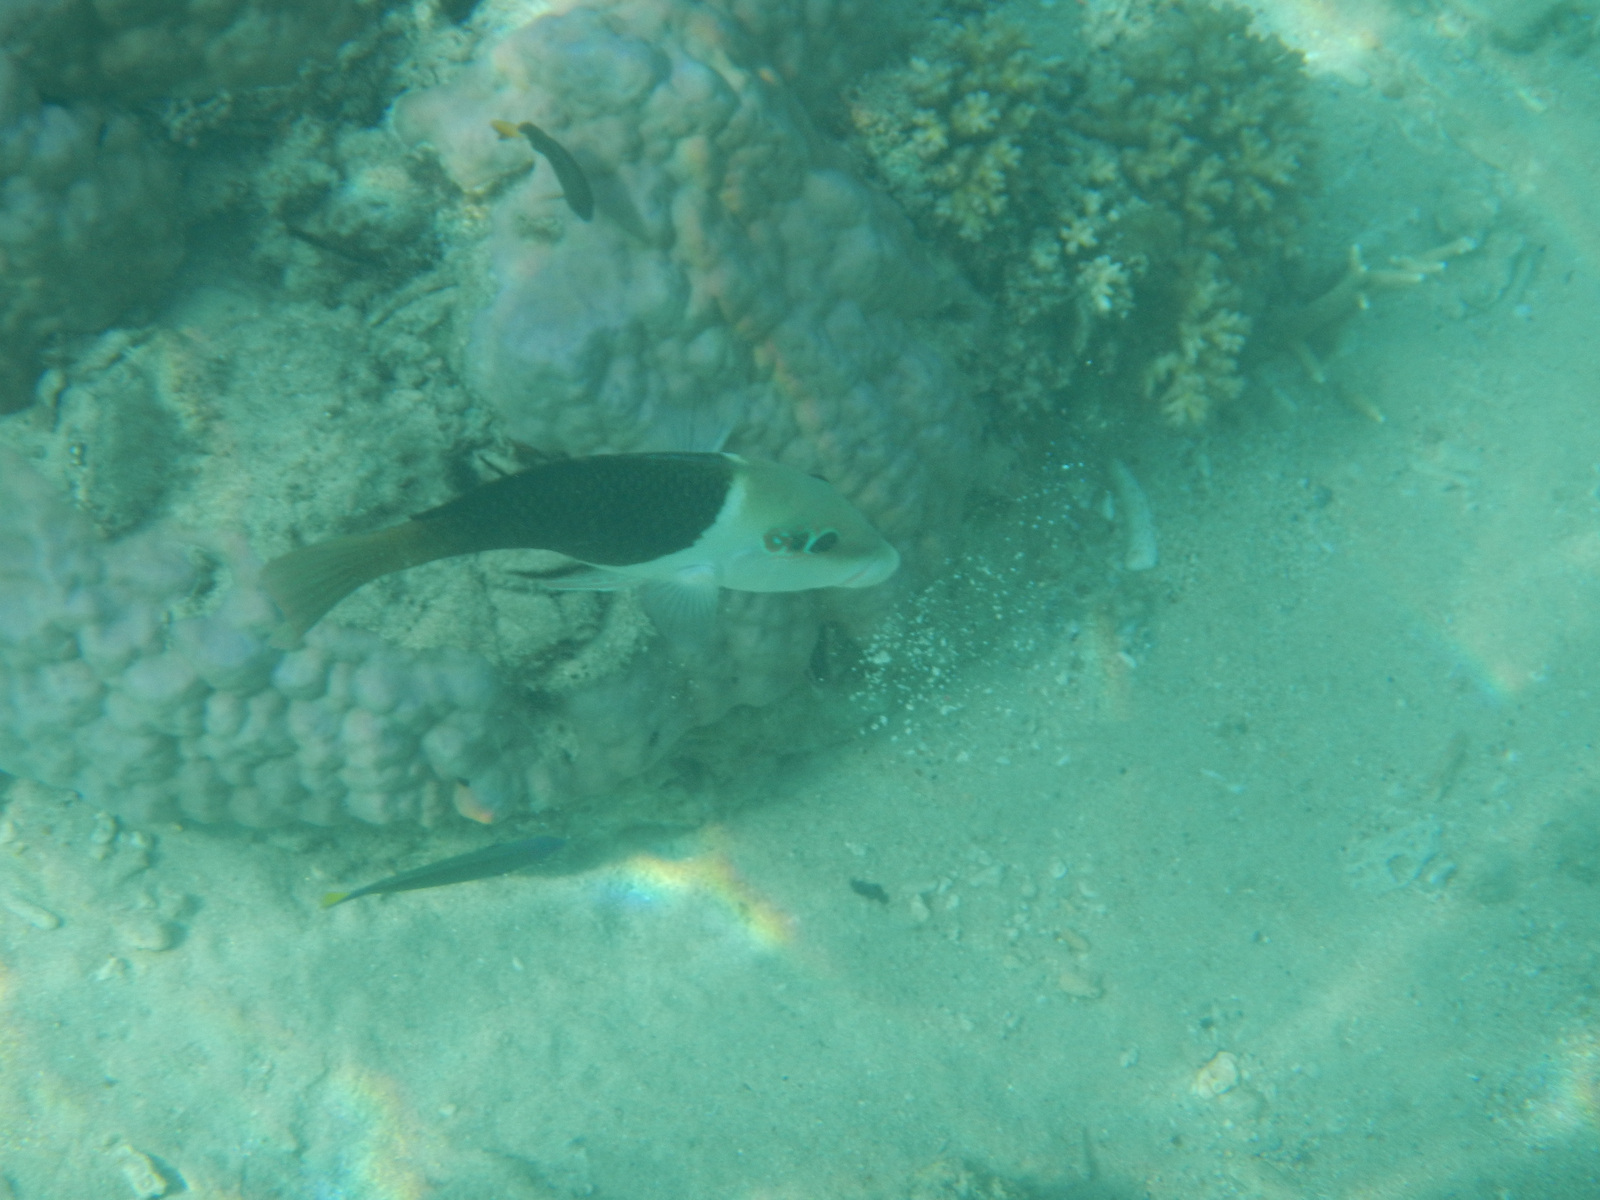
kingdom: Animalia
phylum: Chordata
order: Perciformes
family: Labridae
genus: Hemigymnus
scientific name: Hemigymnus melapterus
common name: Blackeye thicklip
